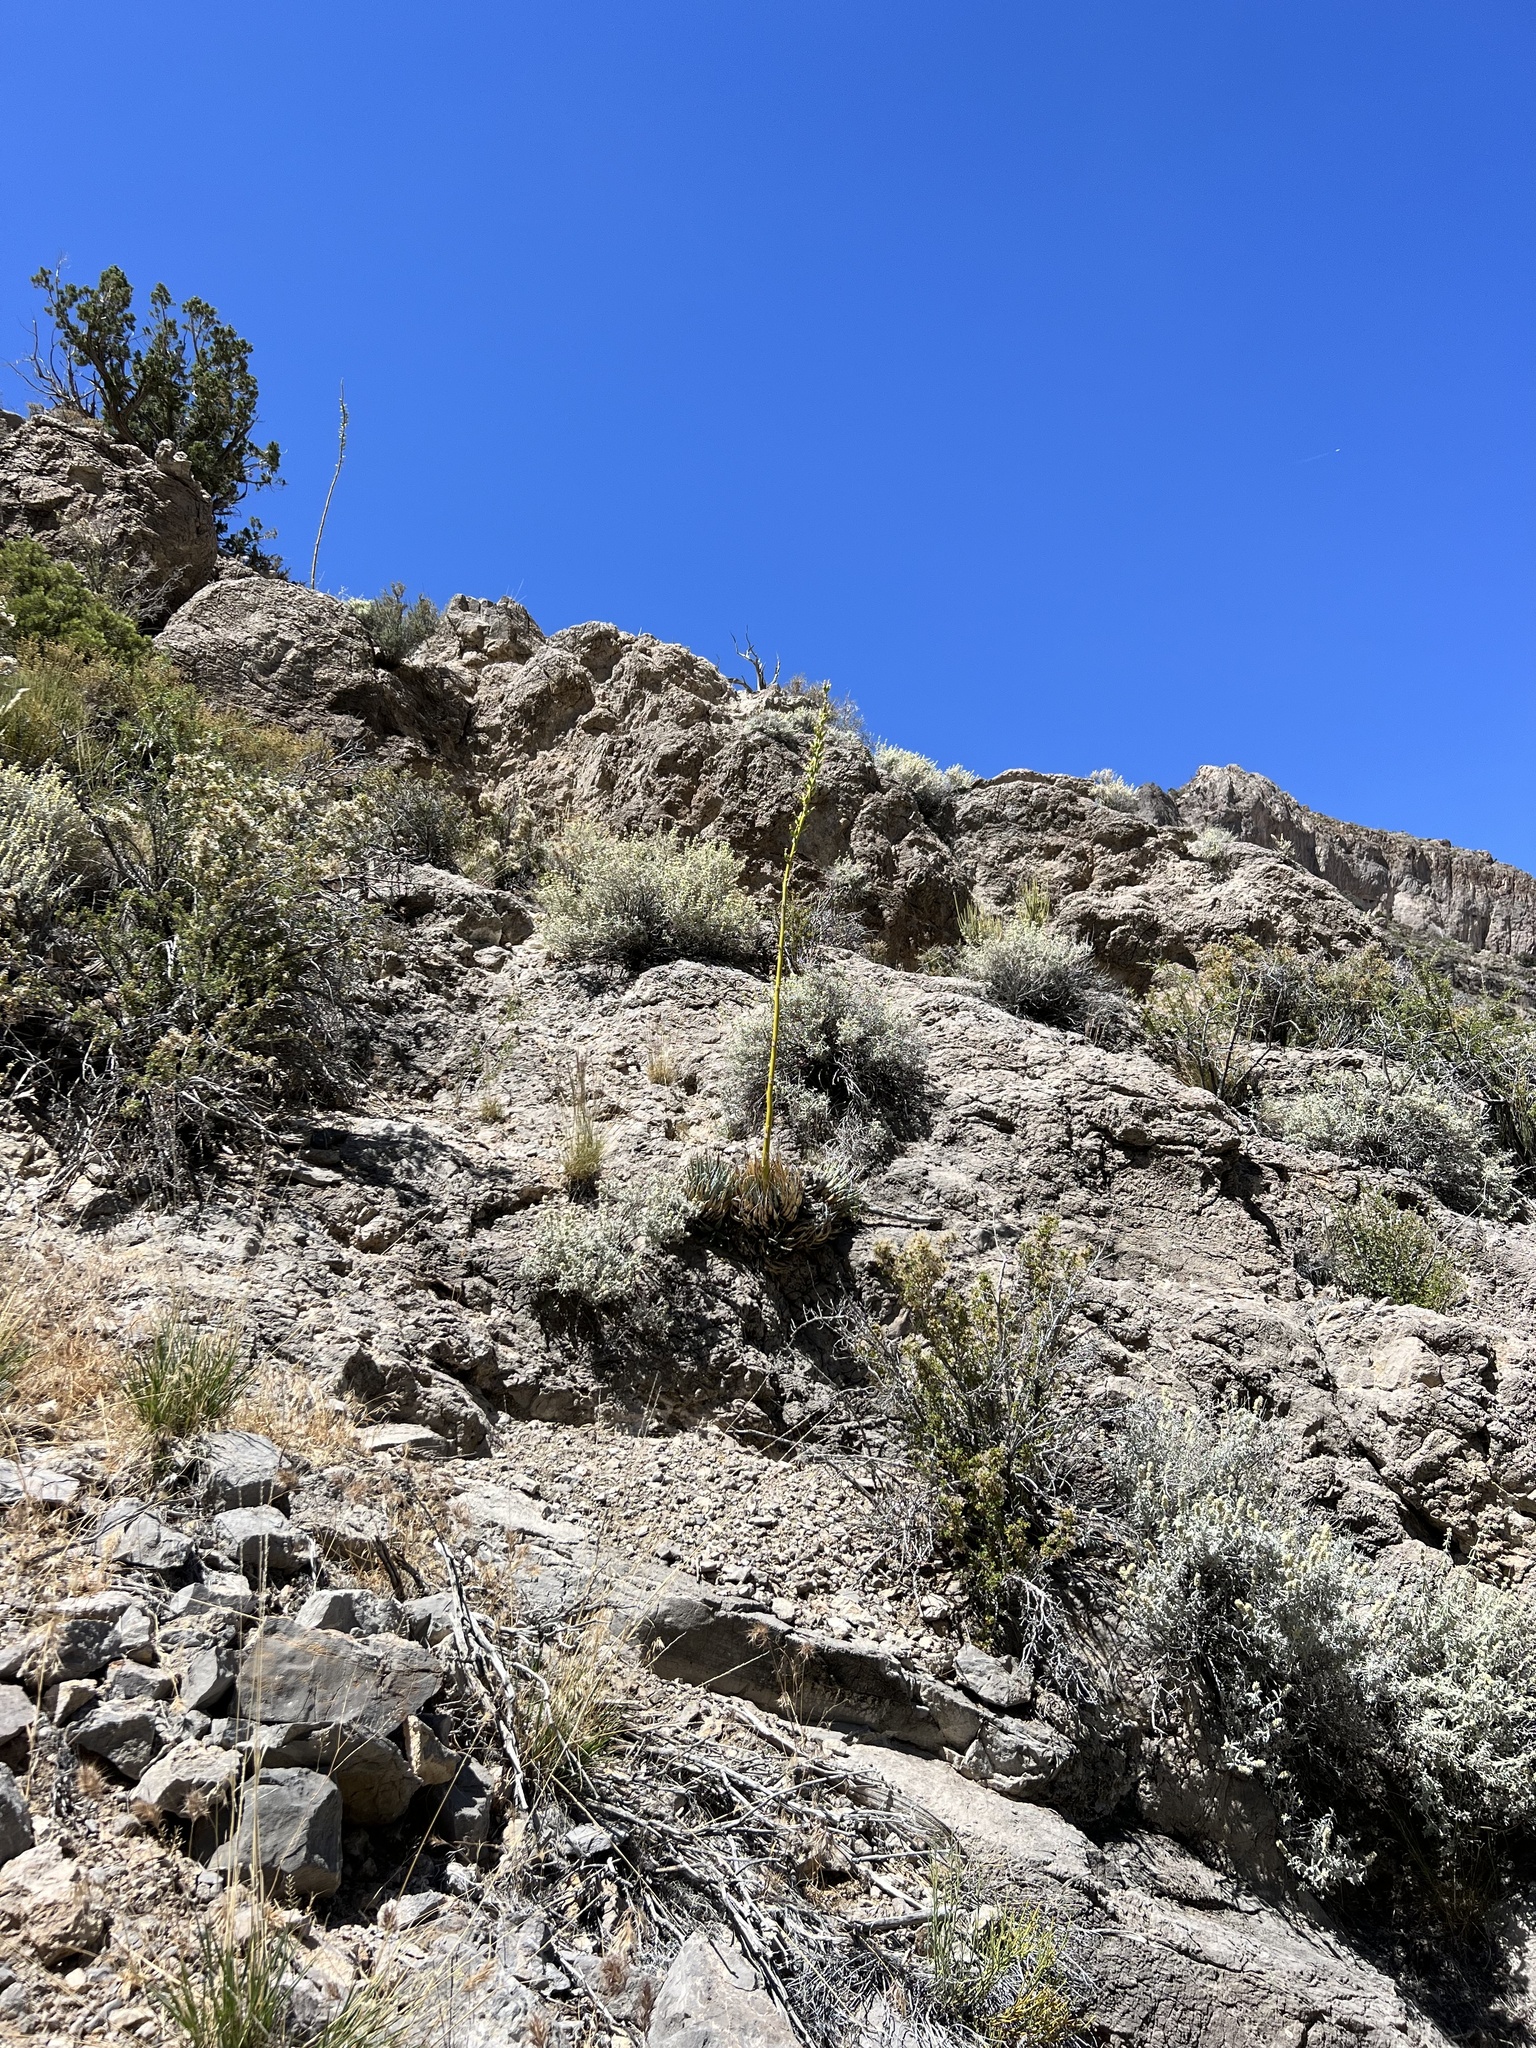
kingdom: Plantae
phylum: Tracheophyta
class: Liliopsida
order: Asparagales
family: Asparagaceae
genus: Agave
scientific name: Agave utahensis
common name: Utah agave
